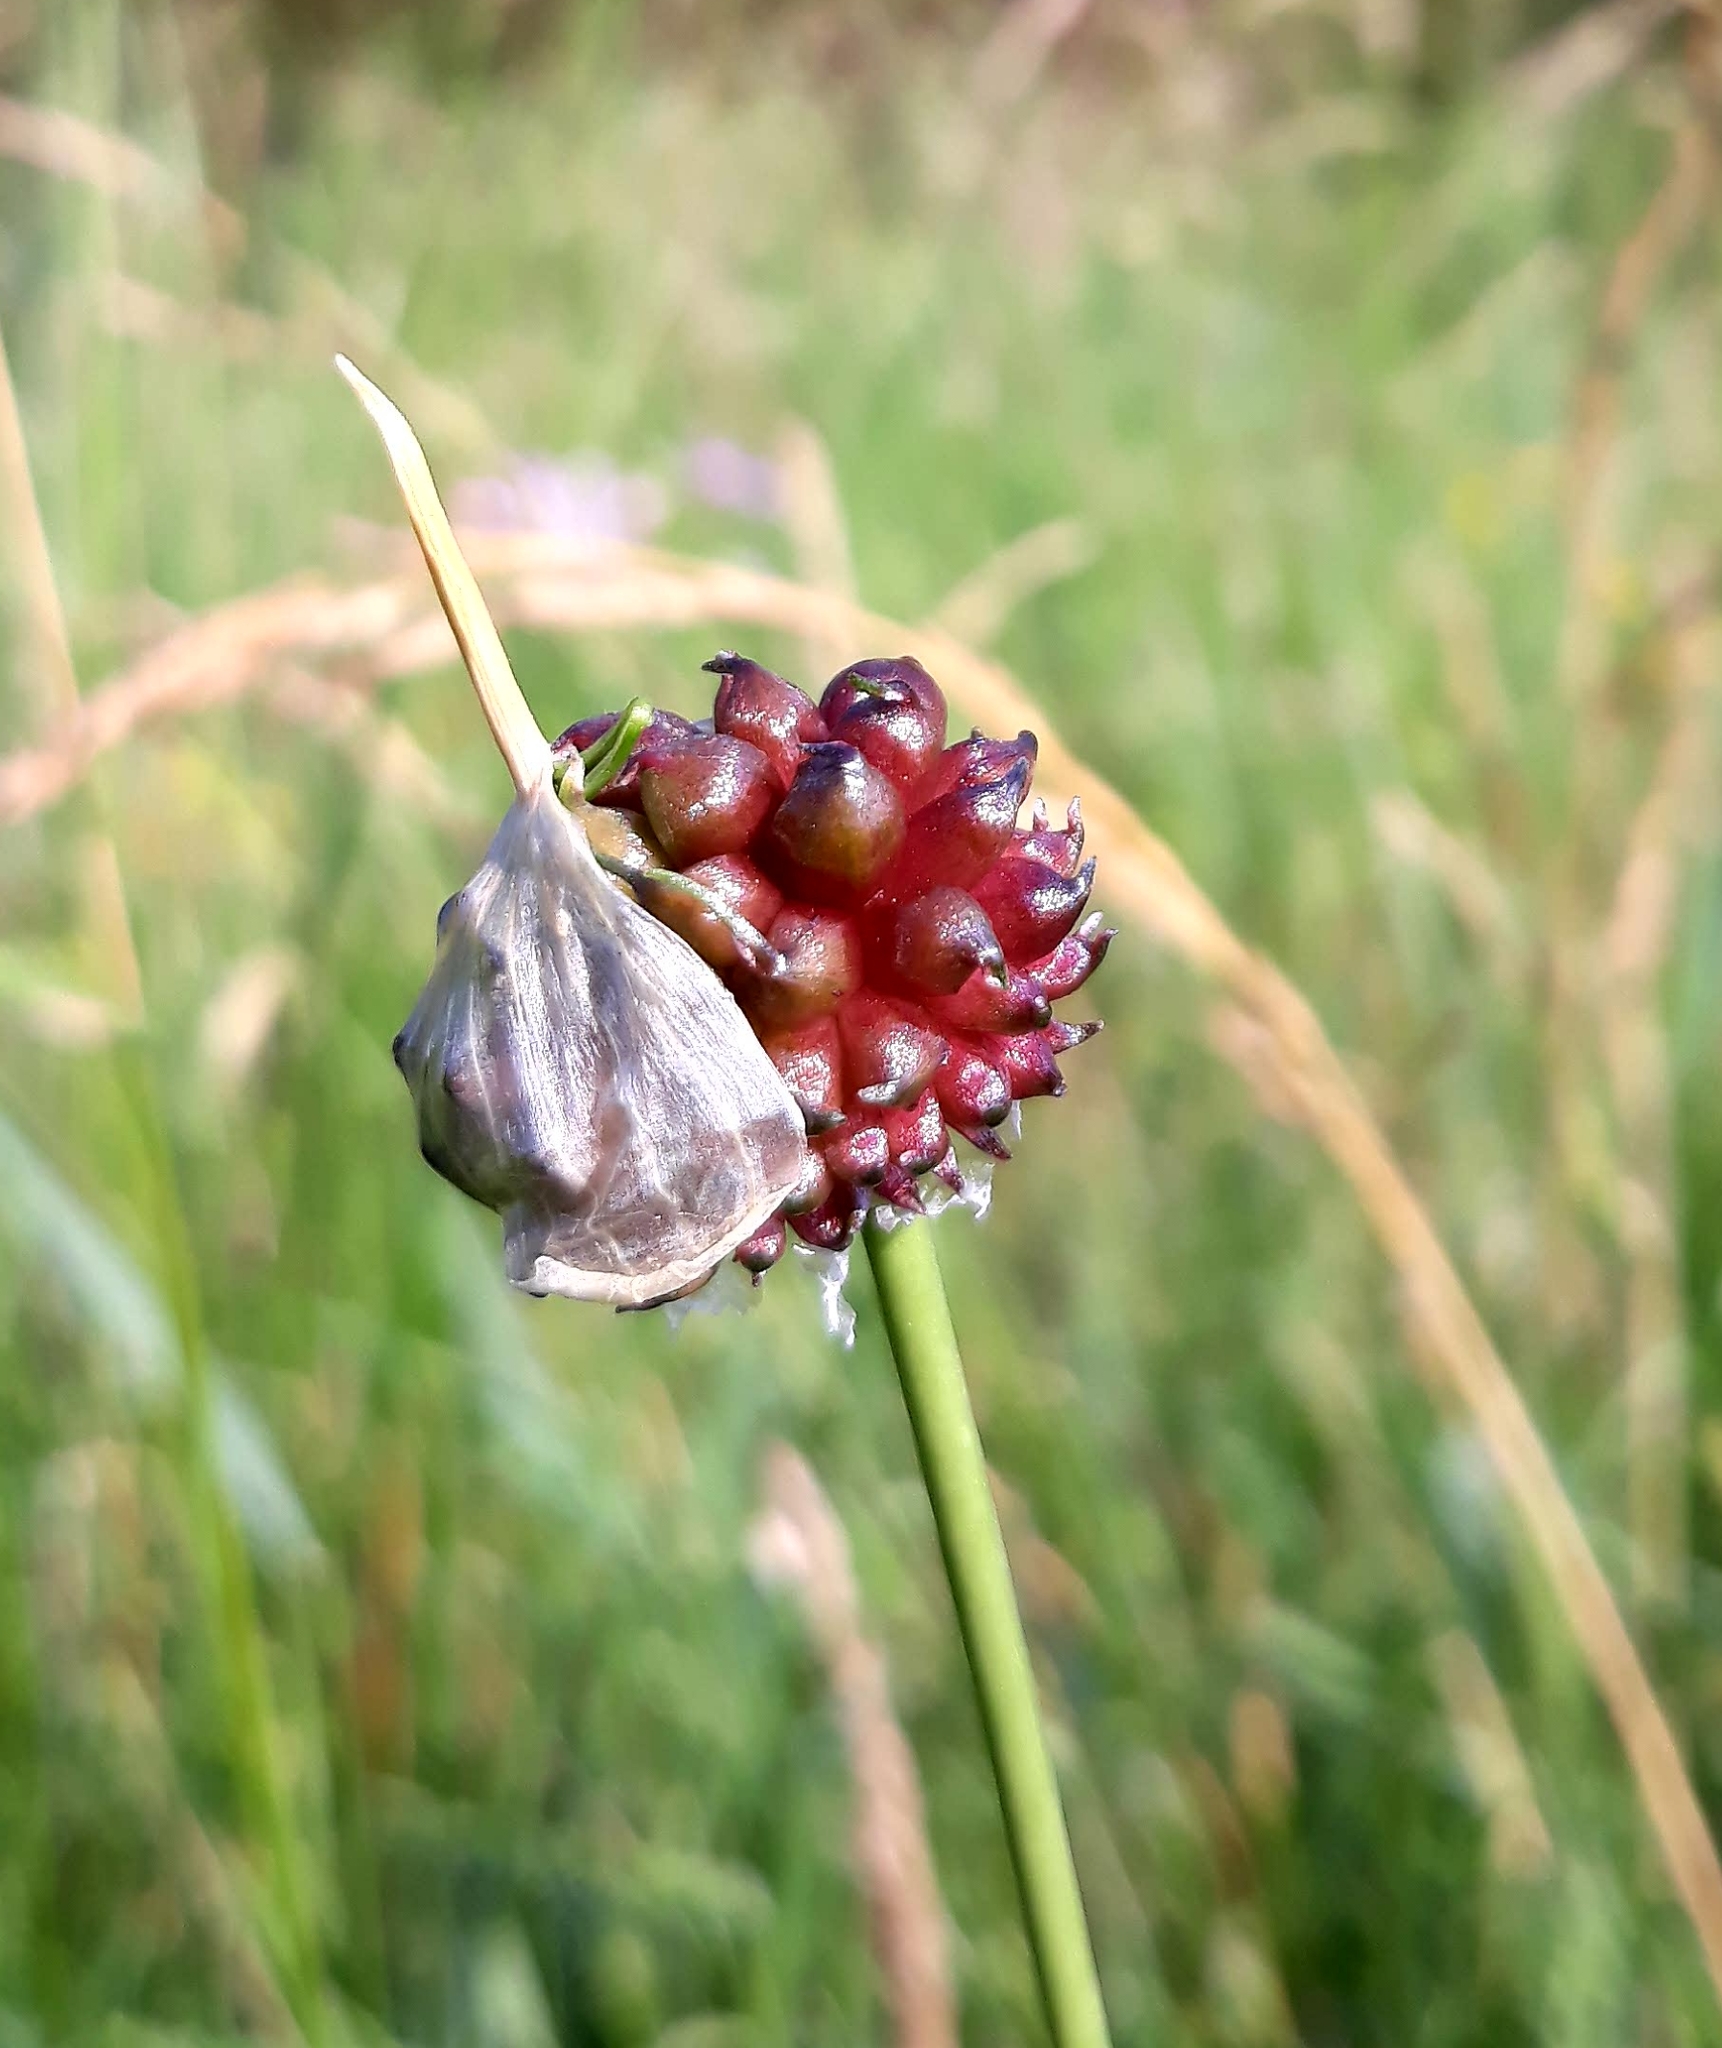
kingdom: Plantae
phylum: Tracheophyta
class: Liliopsida
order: Asparagales
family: Amaryllidaceae
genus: Allium
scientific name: Allium vineale
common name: Crow garlic
